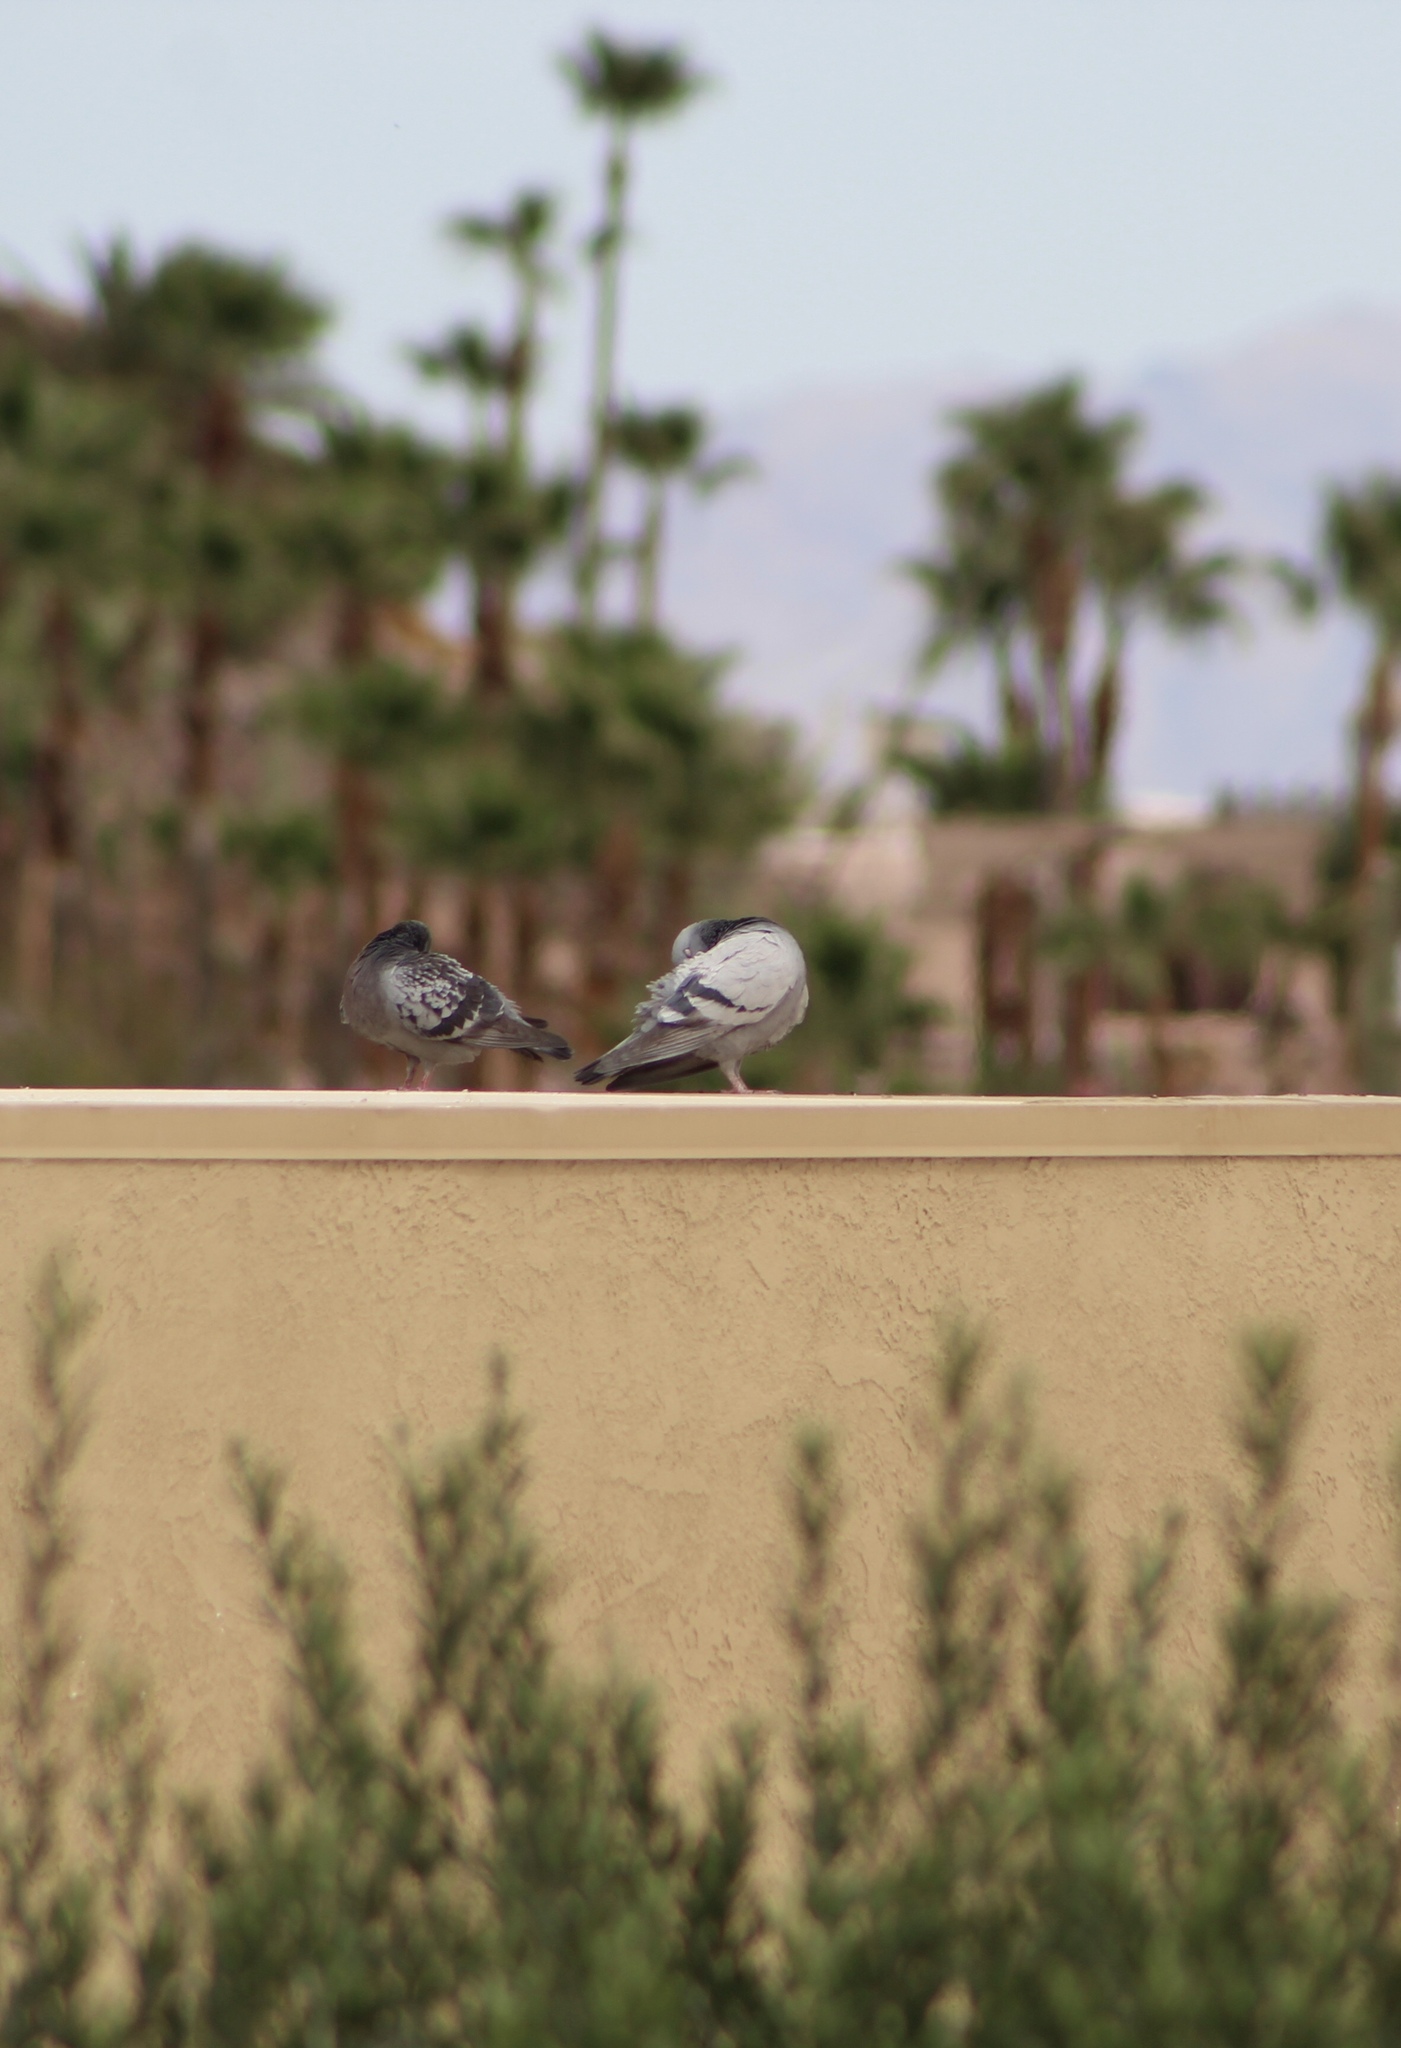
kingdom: Animalia
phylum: Chordata
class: Aves
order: Columbiformes
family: Columbidae
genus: Columba
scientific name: Columba livia
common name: Rock pigeon
